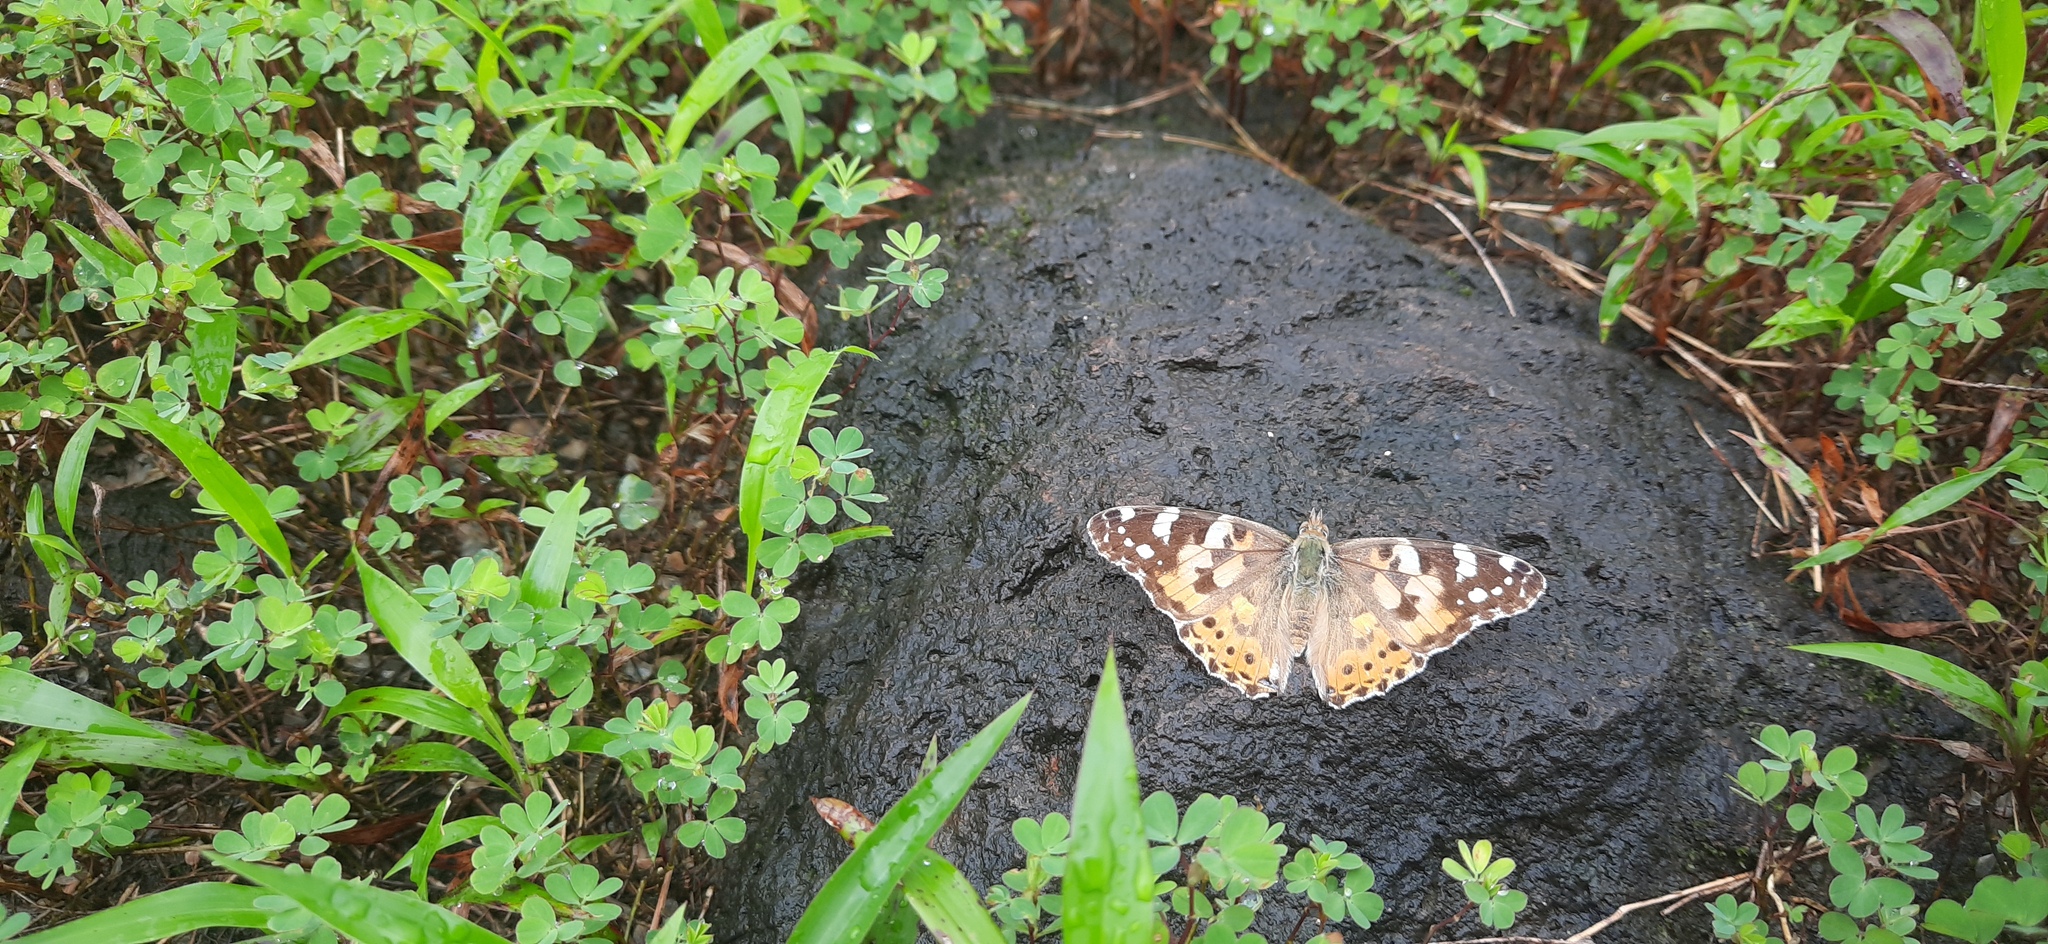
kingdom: Animalia
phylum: Arthropoda
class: Insecta
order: Lepidoptera
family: Nymphalidae
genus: Vanessa
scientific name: Vanessa cardui
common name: Painted lady
